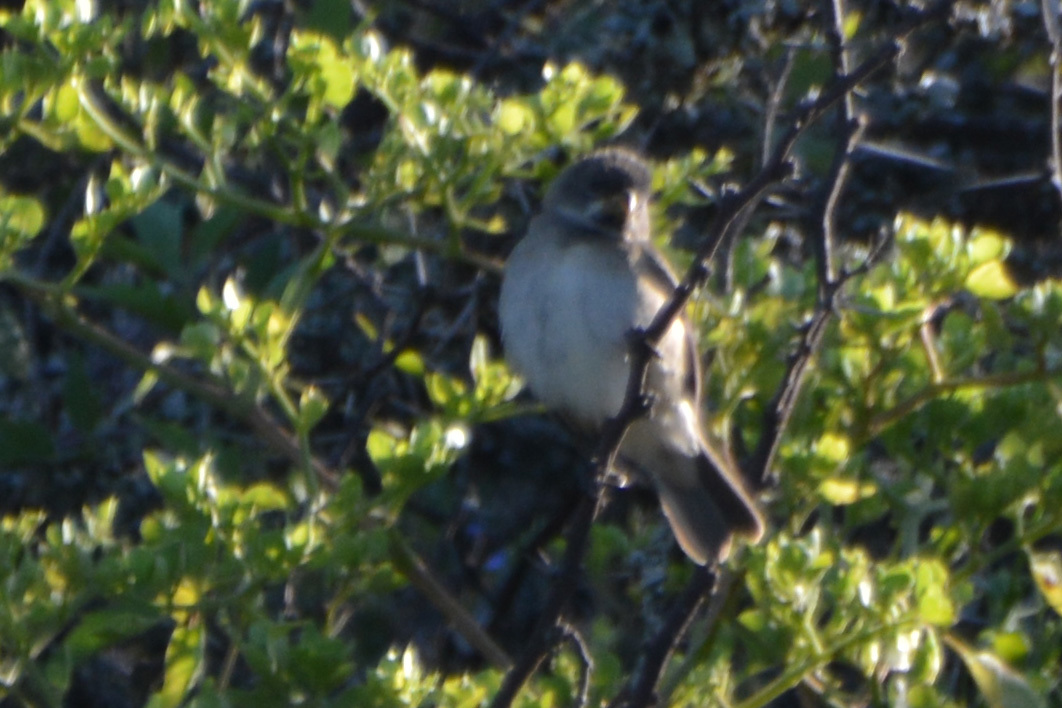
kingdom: Animalia
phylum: Chordata
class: Aves
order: Passeriformes
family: Thraupidae
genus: Sporophila
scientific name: Sporophila caerulescens
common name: Double-collared seedeater
